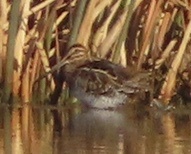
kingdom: Animalia
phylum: Chordata
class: Aves
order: Charadriiformes
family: Scolopacidae
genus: Gallinago
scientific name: Gallinago gallinago
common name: Common snipe
